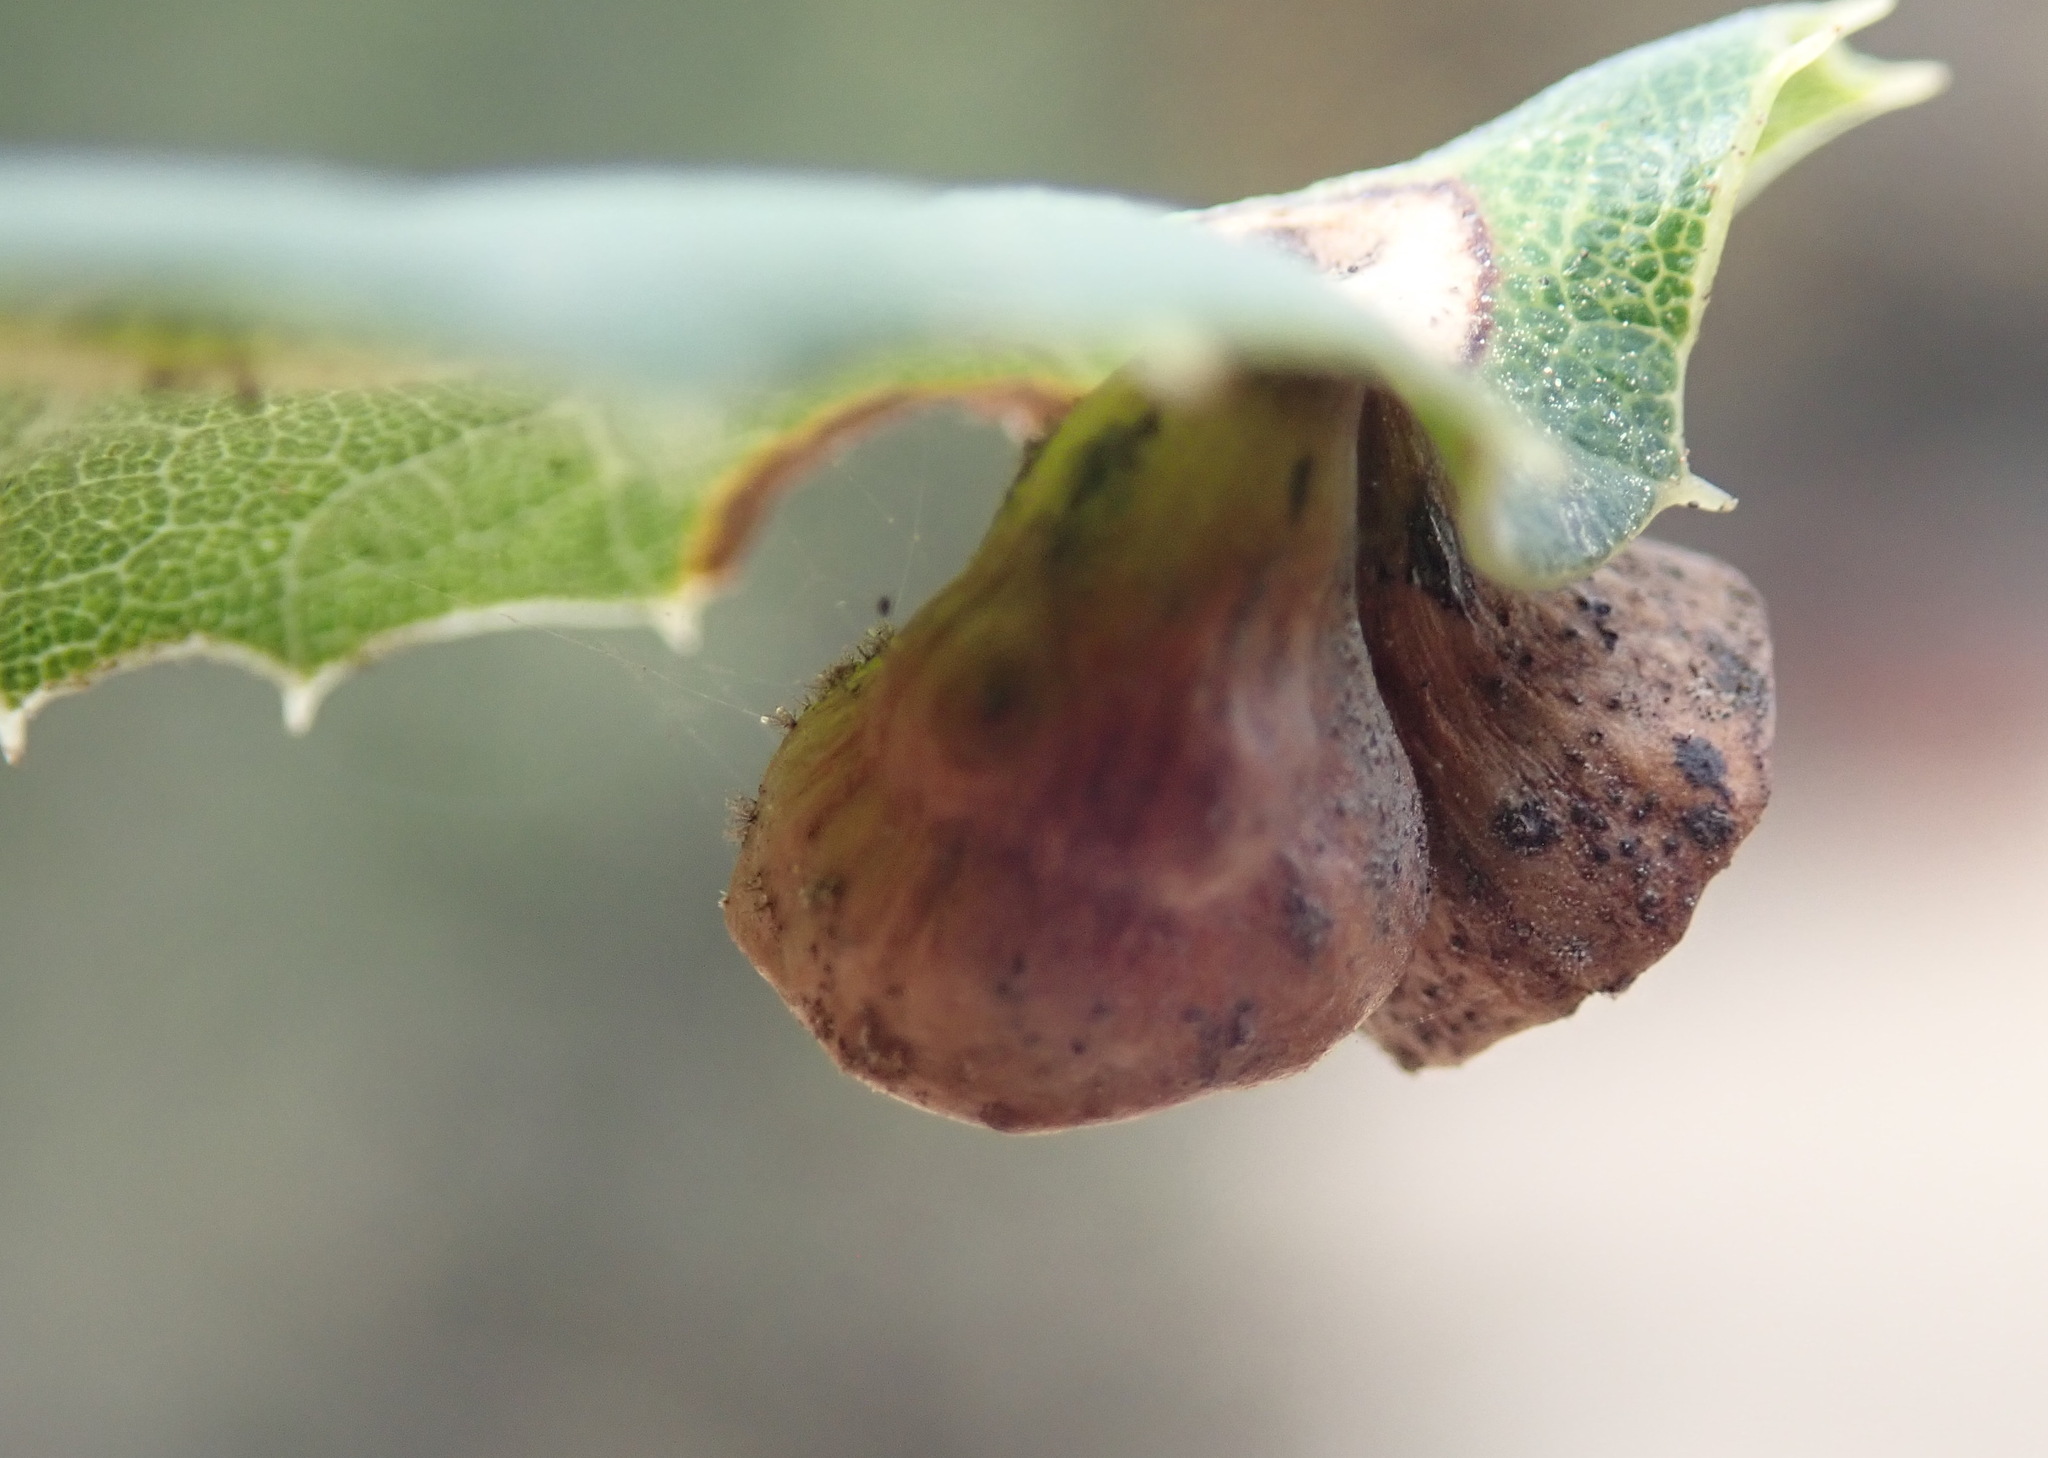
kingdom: Animalia
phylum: Arthropoda
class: Insecta
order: Hymenoptera
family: Cynipidae
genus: Amphibolips
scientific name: Amphibolips quercuspomiformis
